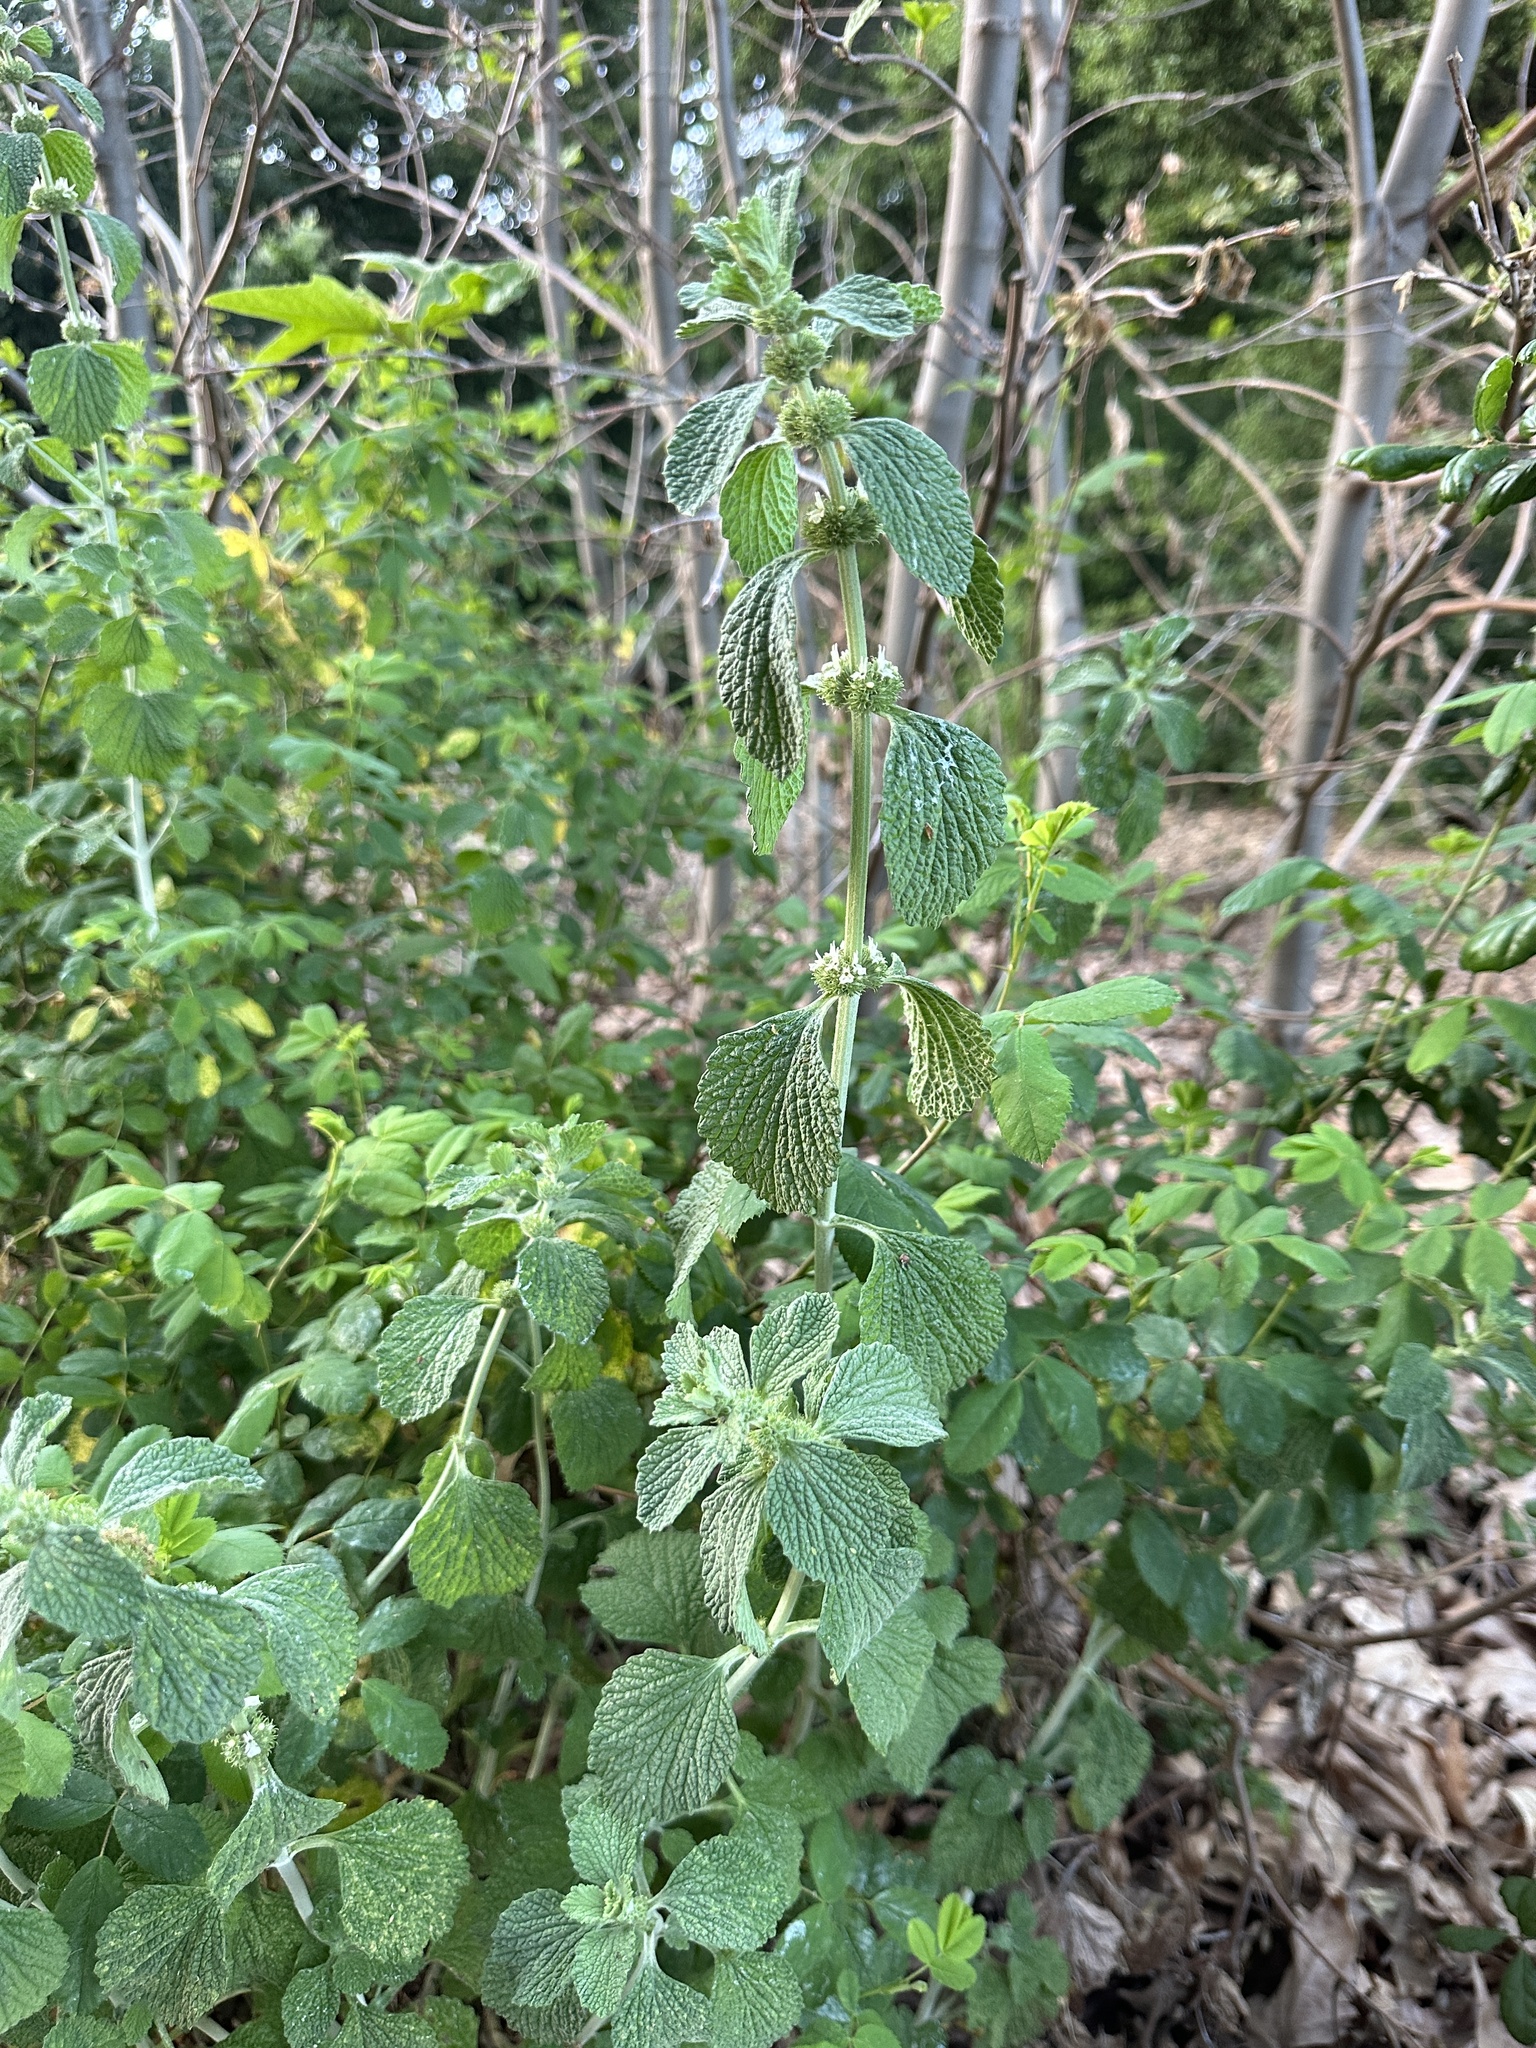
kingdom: Plantae
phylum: Tracheophyta
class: Magnoliopsida
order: Lamiales
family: Lamiaceae
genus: Marrubium
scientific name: Marrubium vulgare
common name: Horehound
